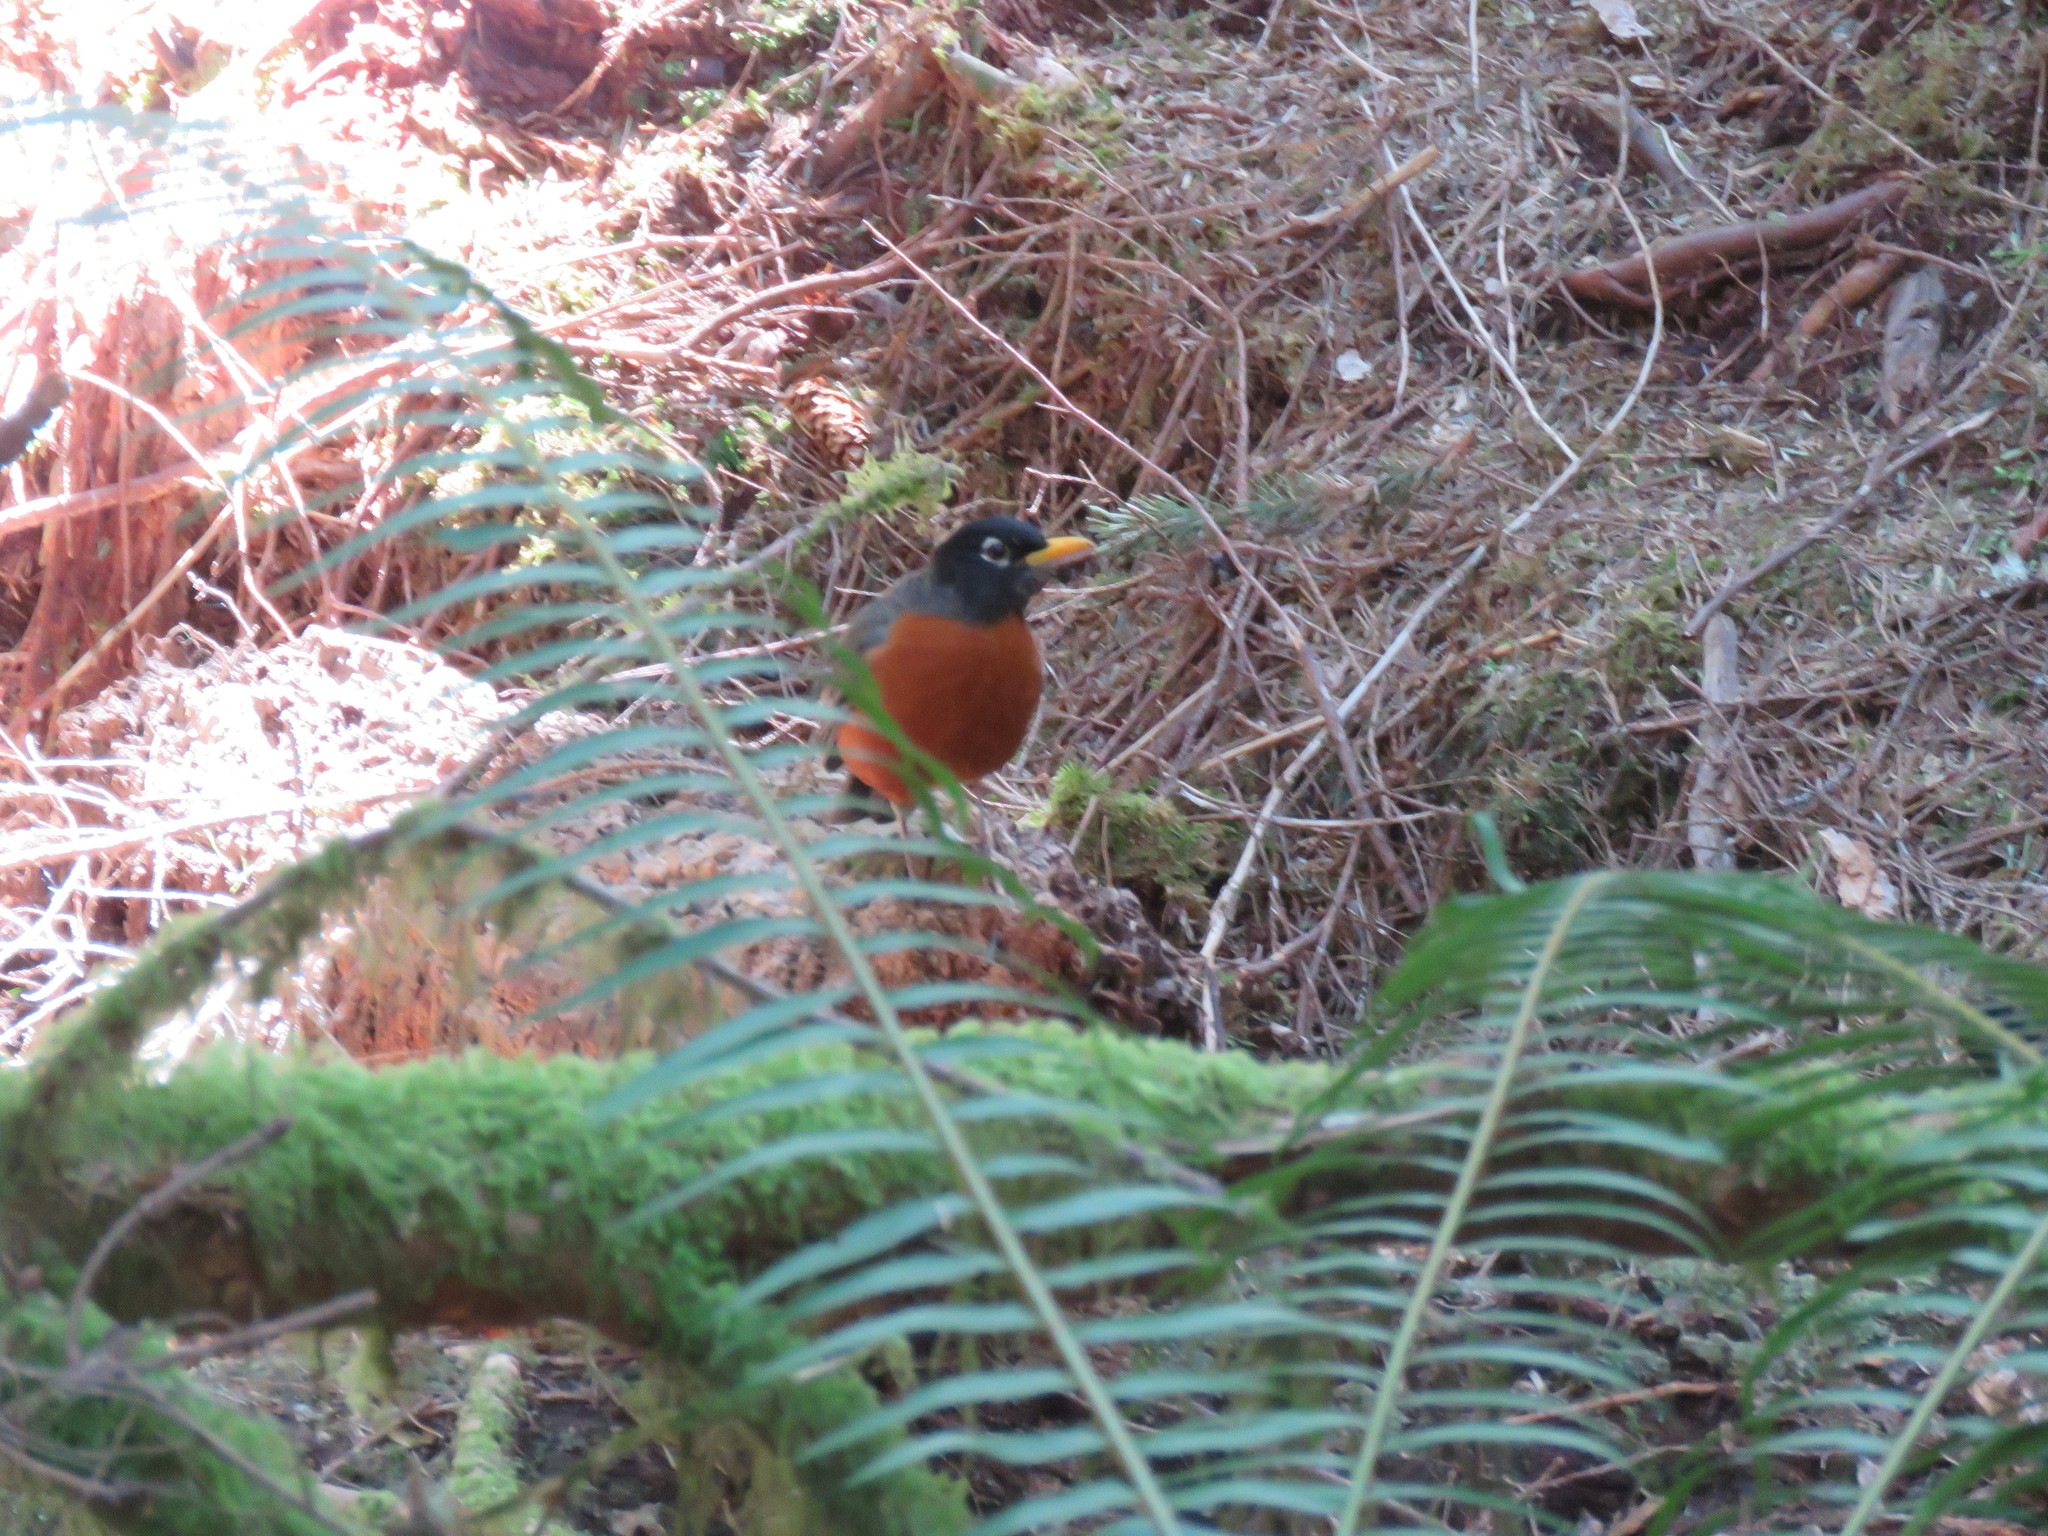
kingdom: Animalia
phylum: Chordata
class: Aves
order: Passeriformes
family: Turdidae
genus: Turdus
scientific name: Turdus migratorius
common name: American robin
